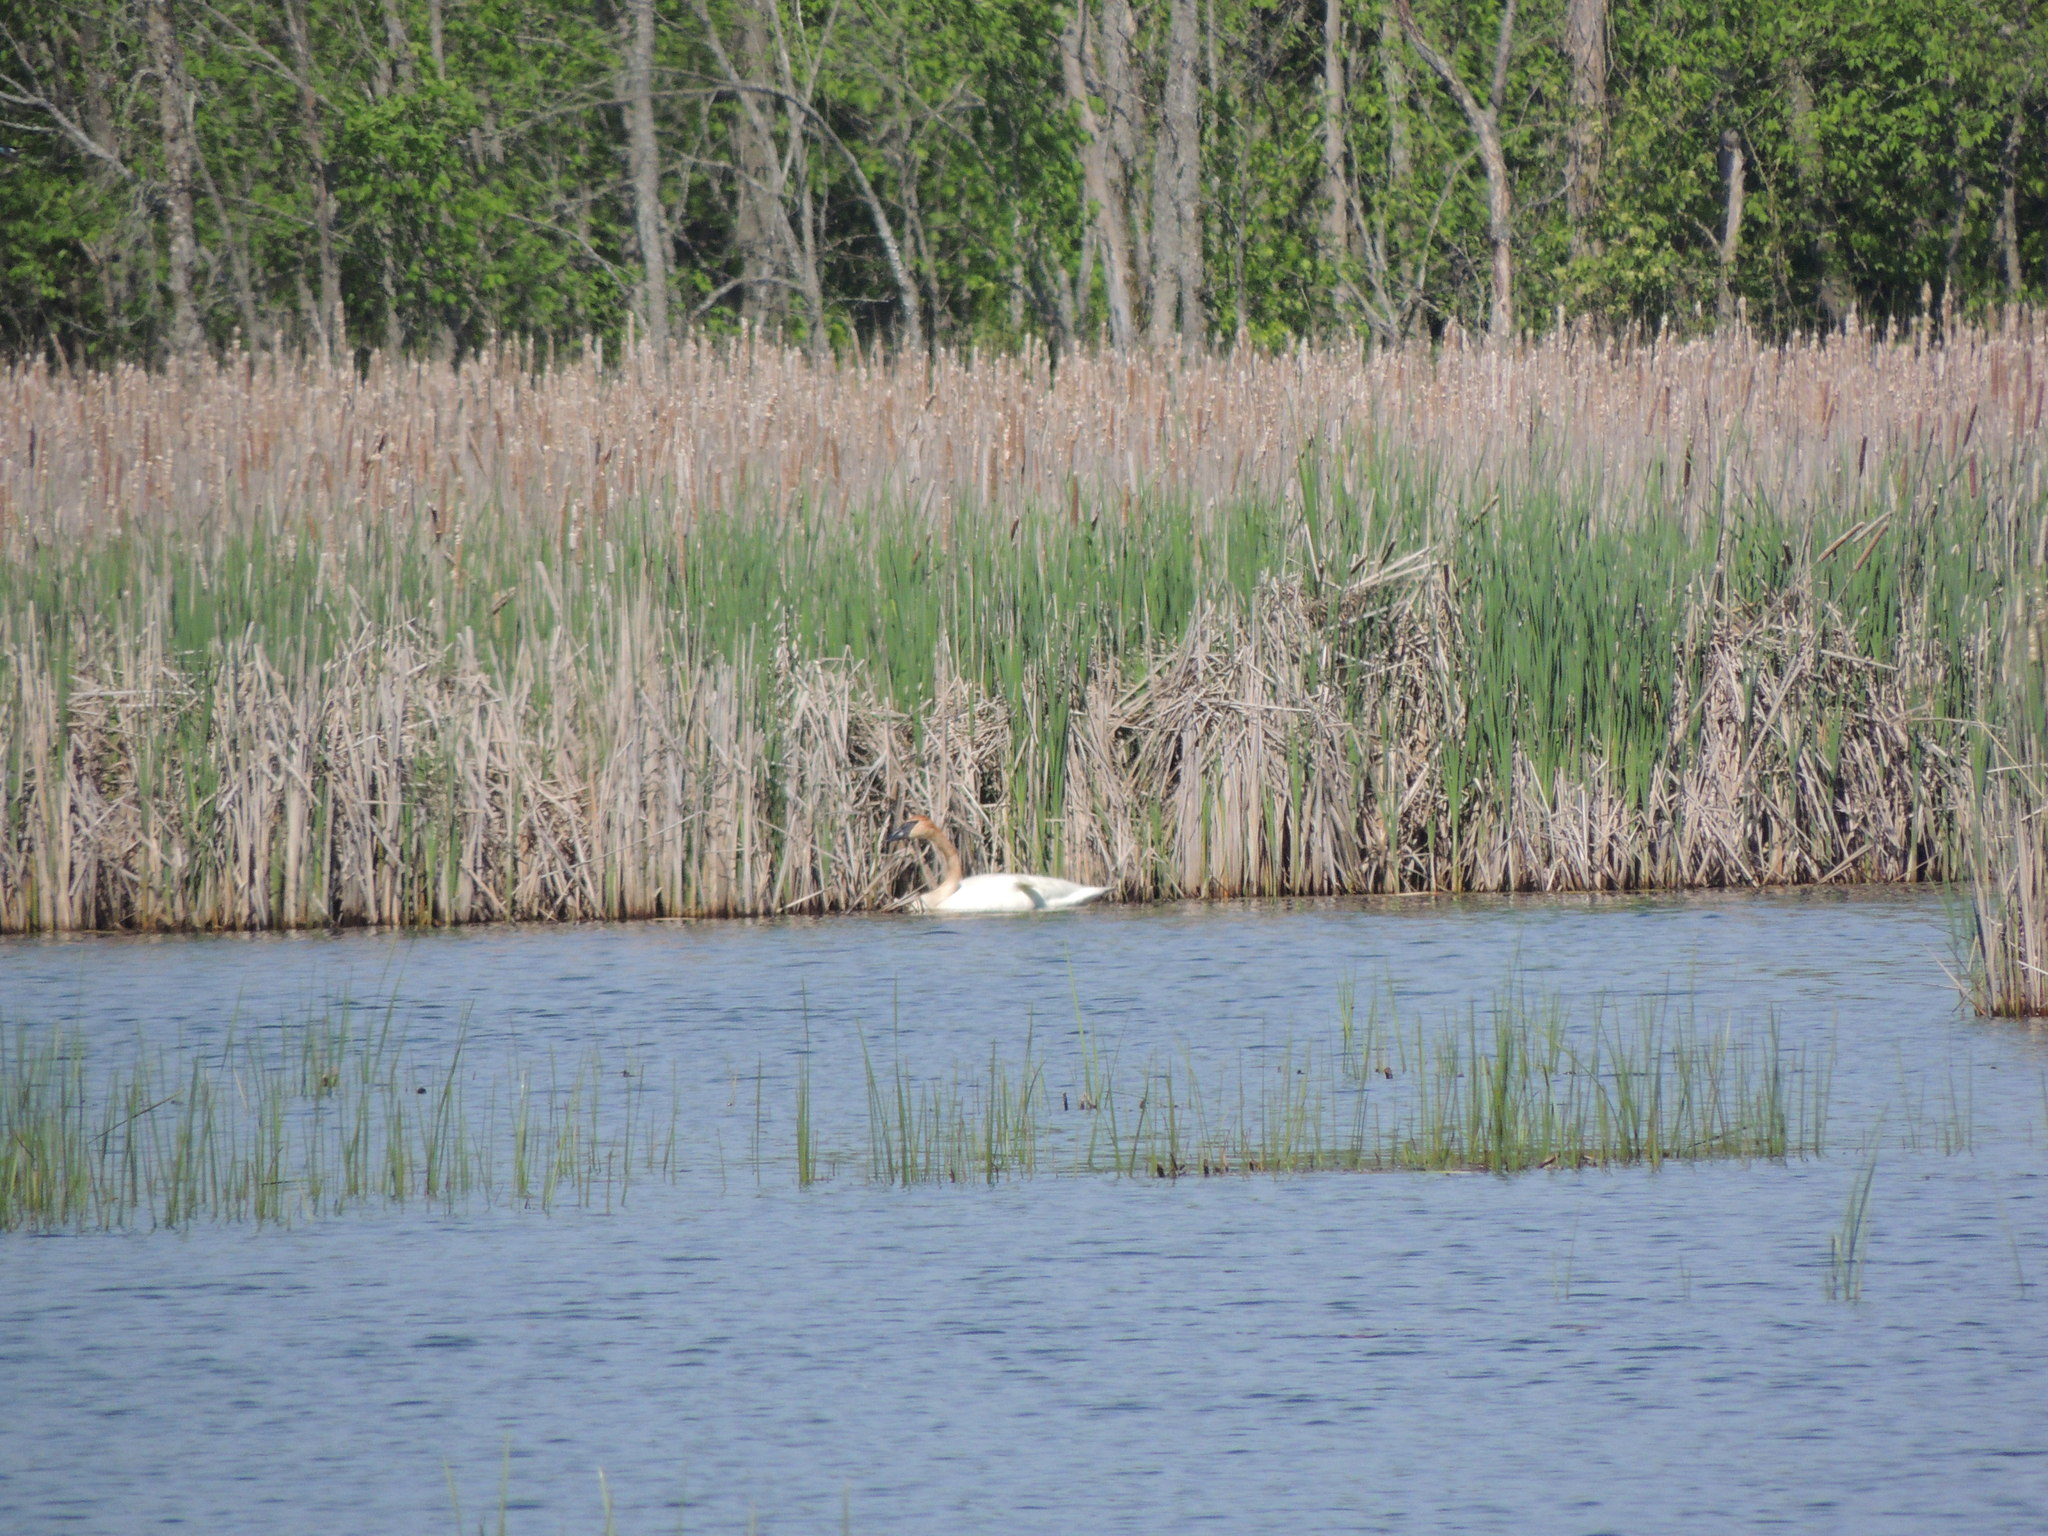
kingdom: Animalia
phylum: Chordata
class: Aves
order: Anseriformes
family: Anatidae
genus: Cygnus
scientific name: Cygnus buccinator
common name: Trumpeter swan
